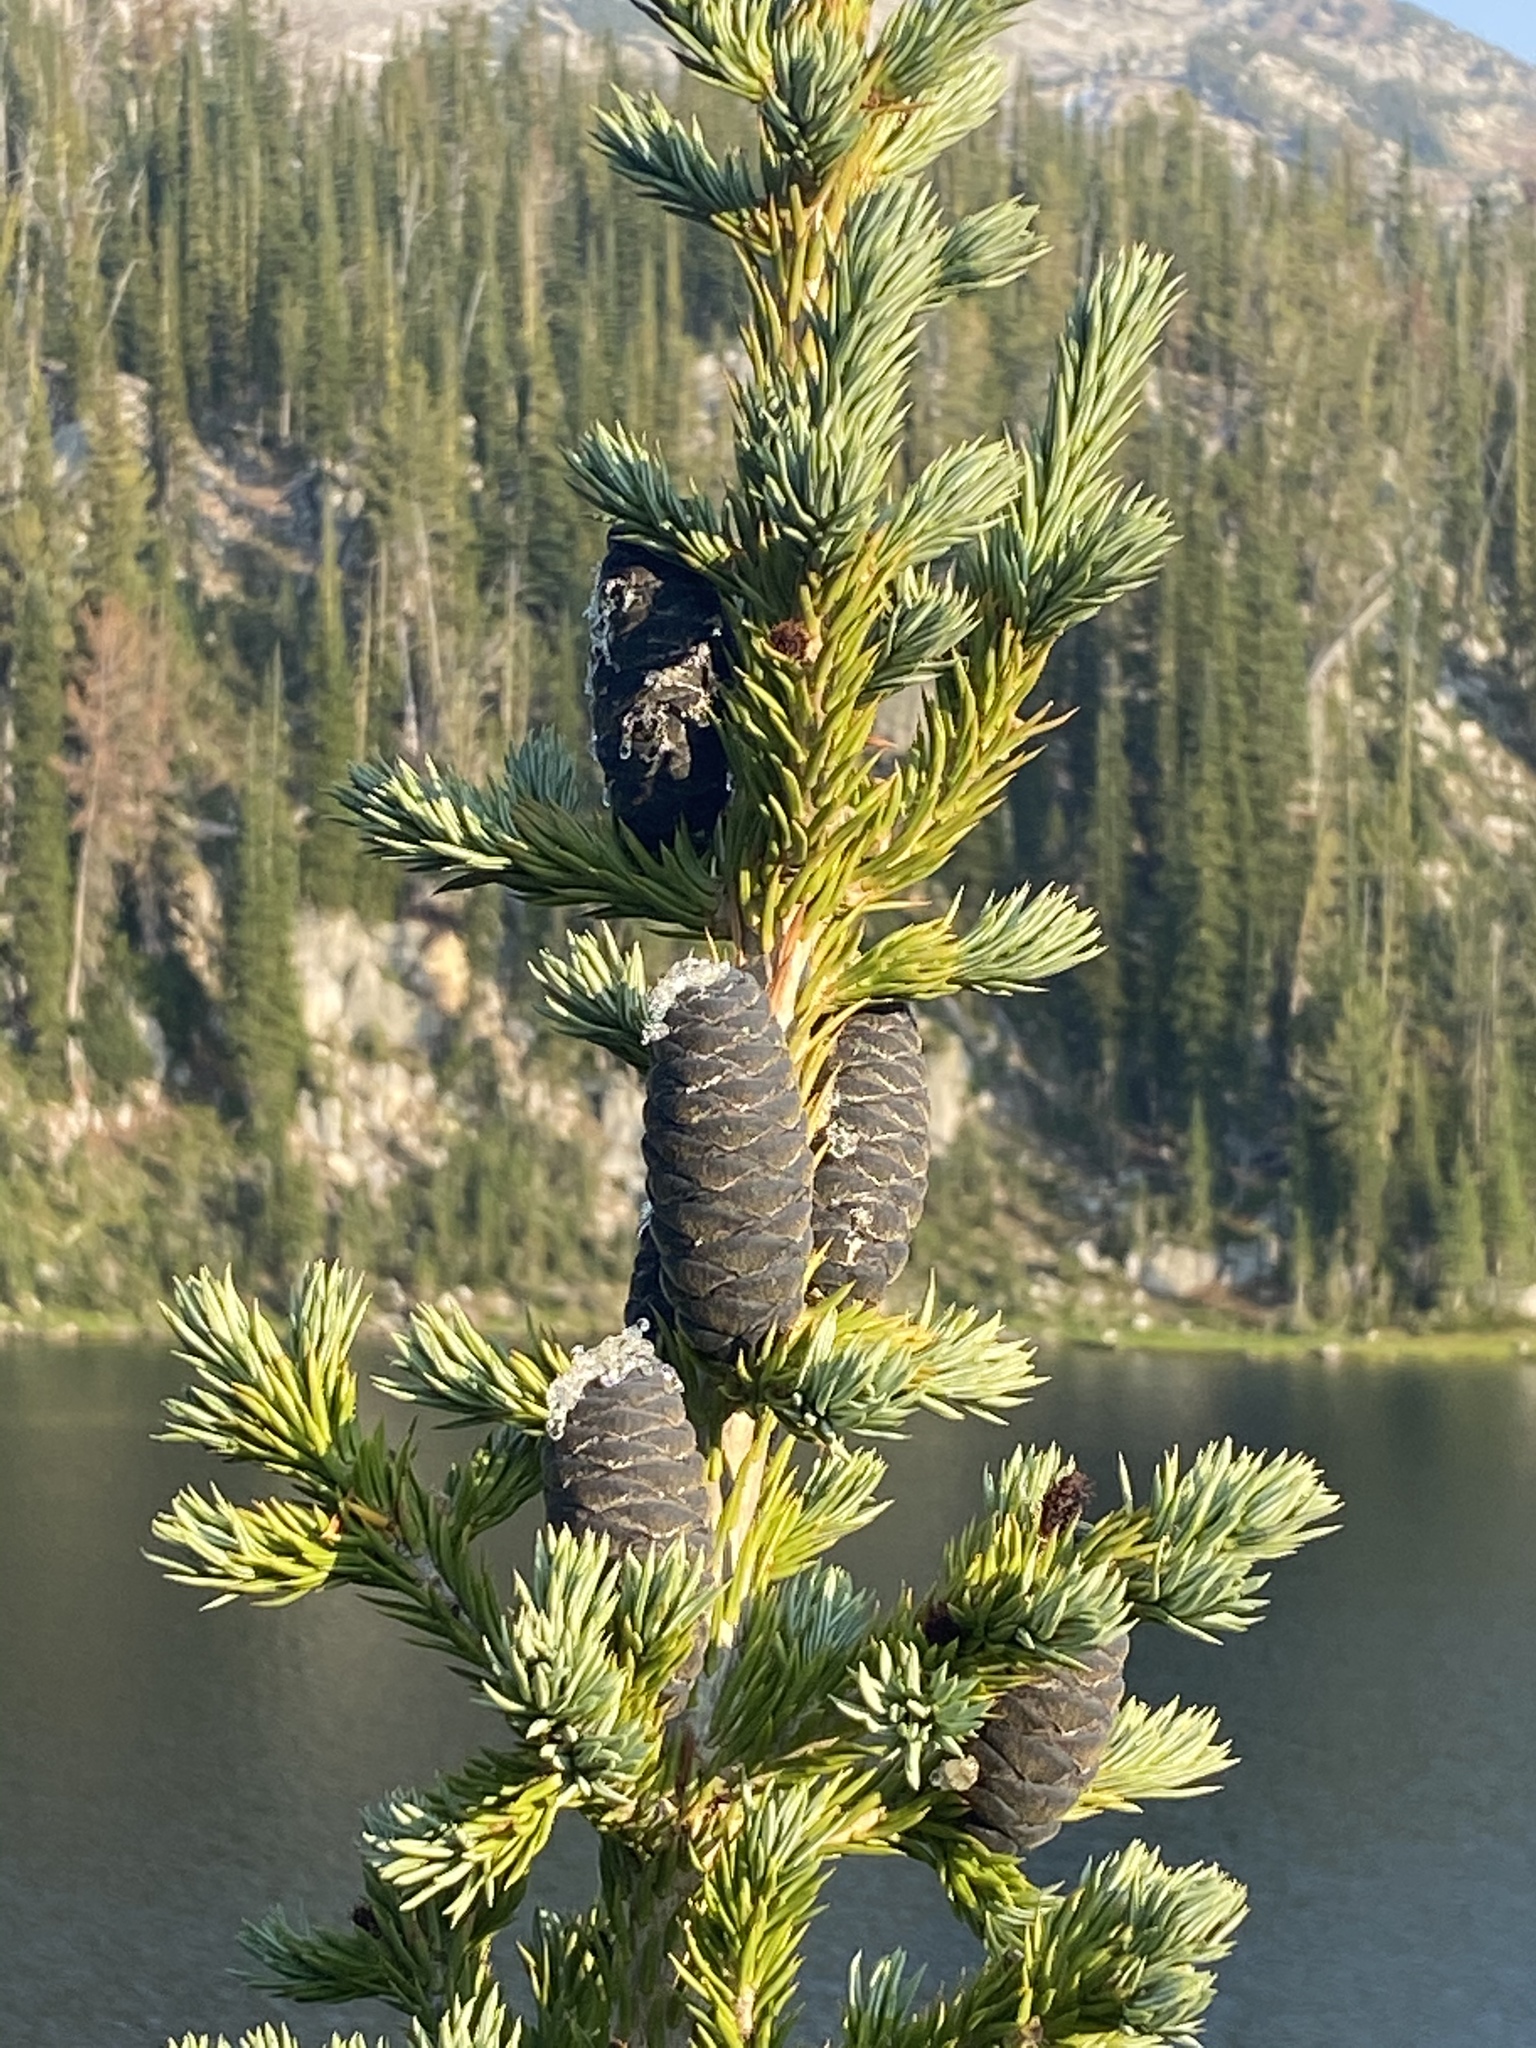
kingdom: Plantae
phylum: Tracheophyta
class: Pinopsida
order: Pinales
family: Pinaceae
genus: Abies
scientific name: Abies lasiocarpa
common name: Subalpine fir
